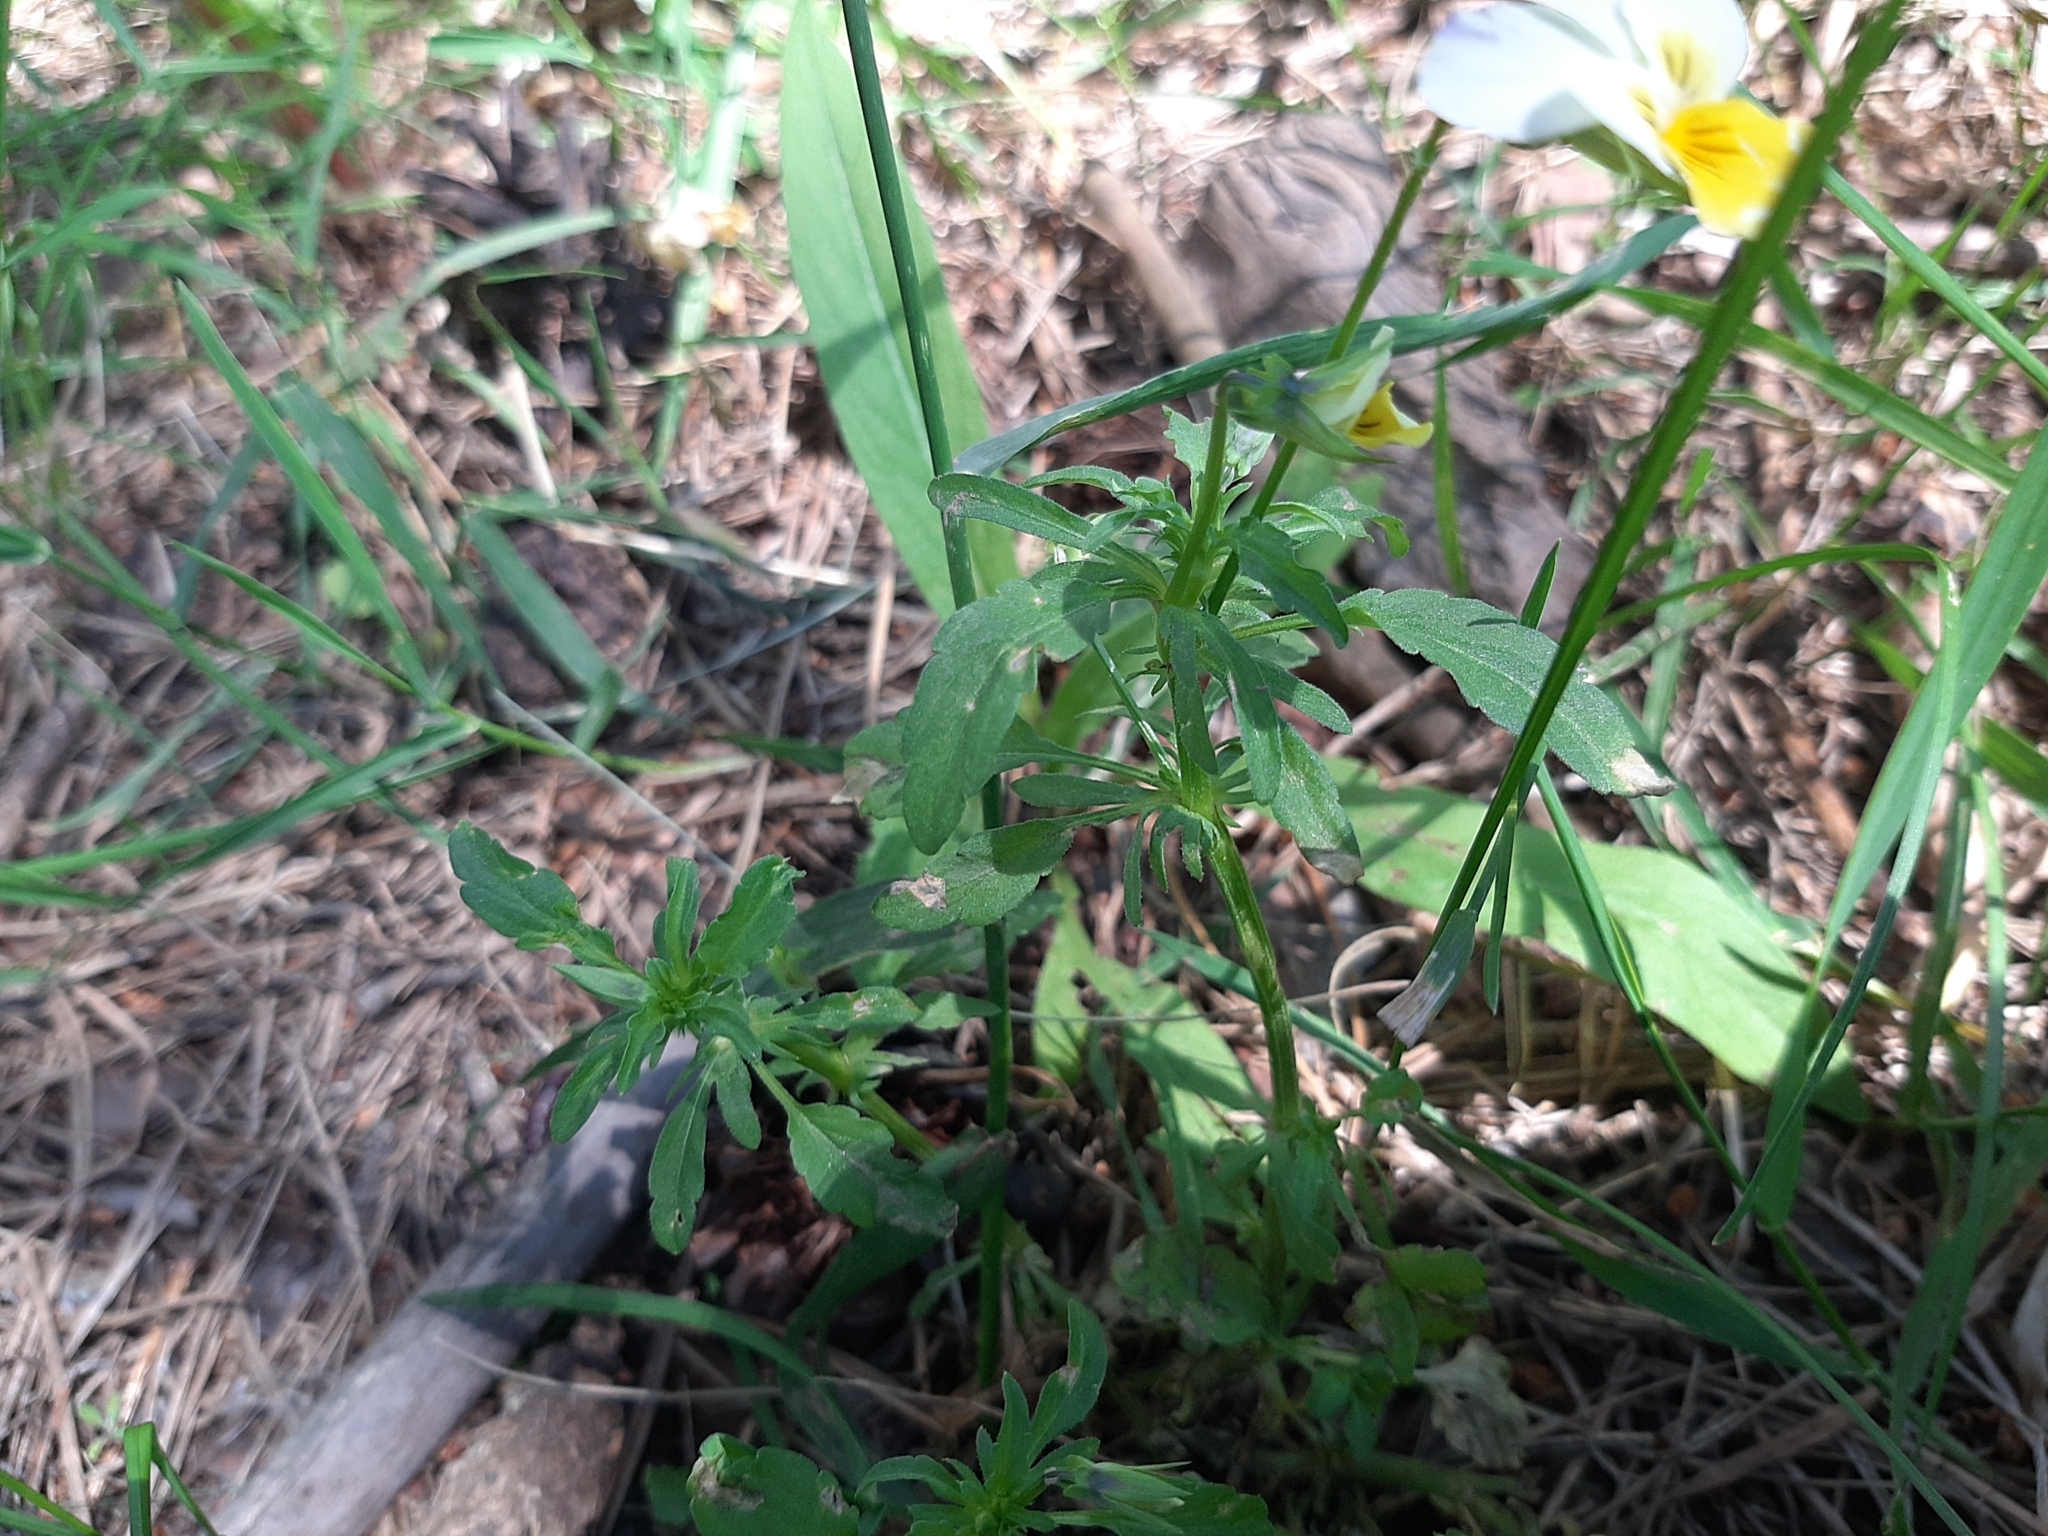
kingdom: Plantae
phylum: Tracheophyta
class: Magnoliopsida
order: Malpighiales
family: Violaceae
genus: Viola
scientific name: Viola tricolor
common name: Pansy
